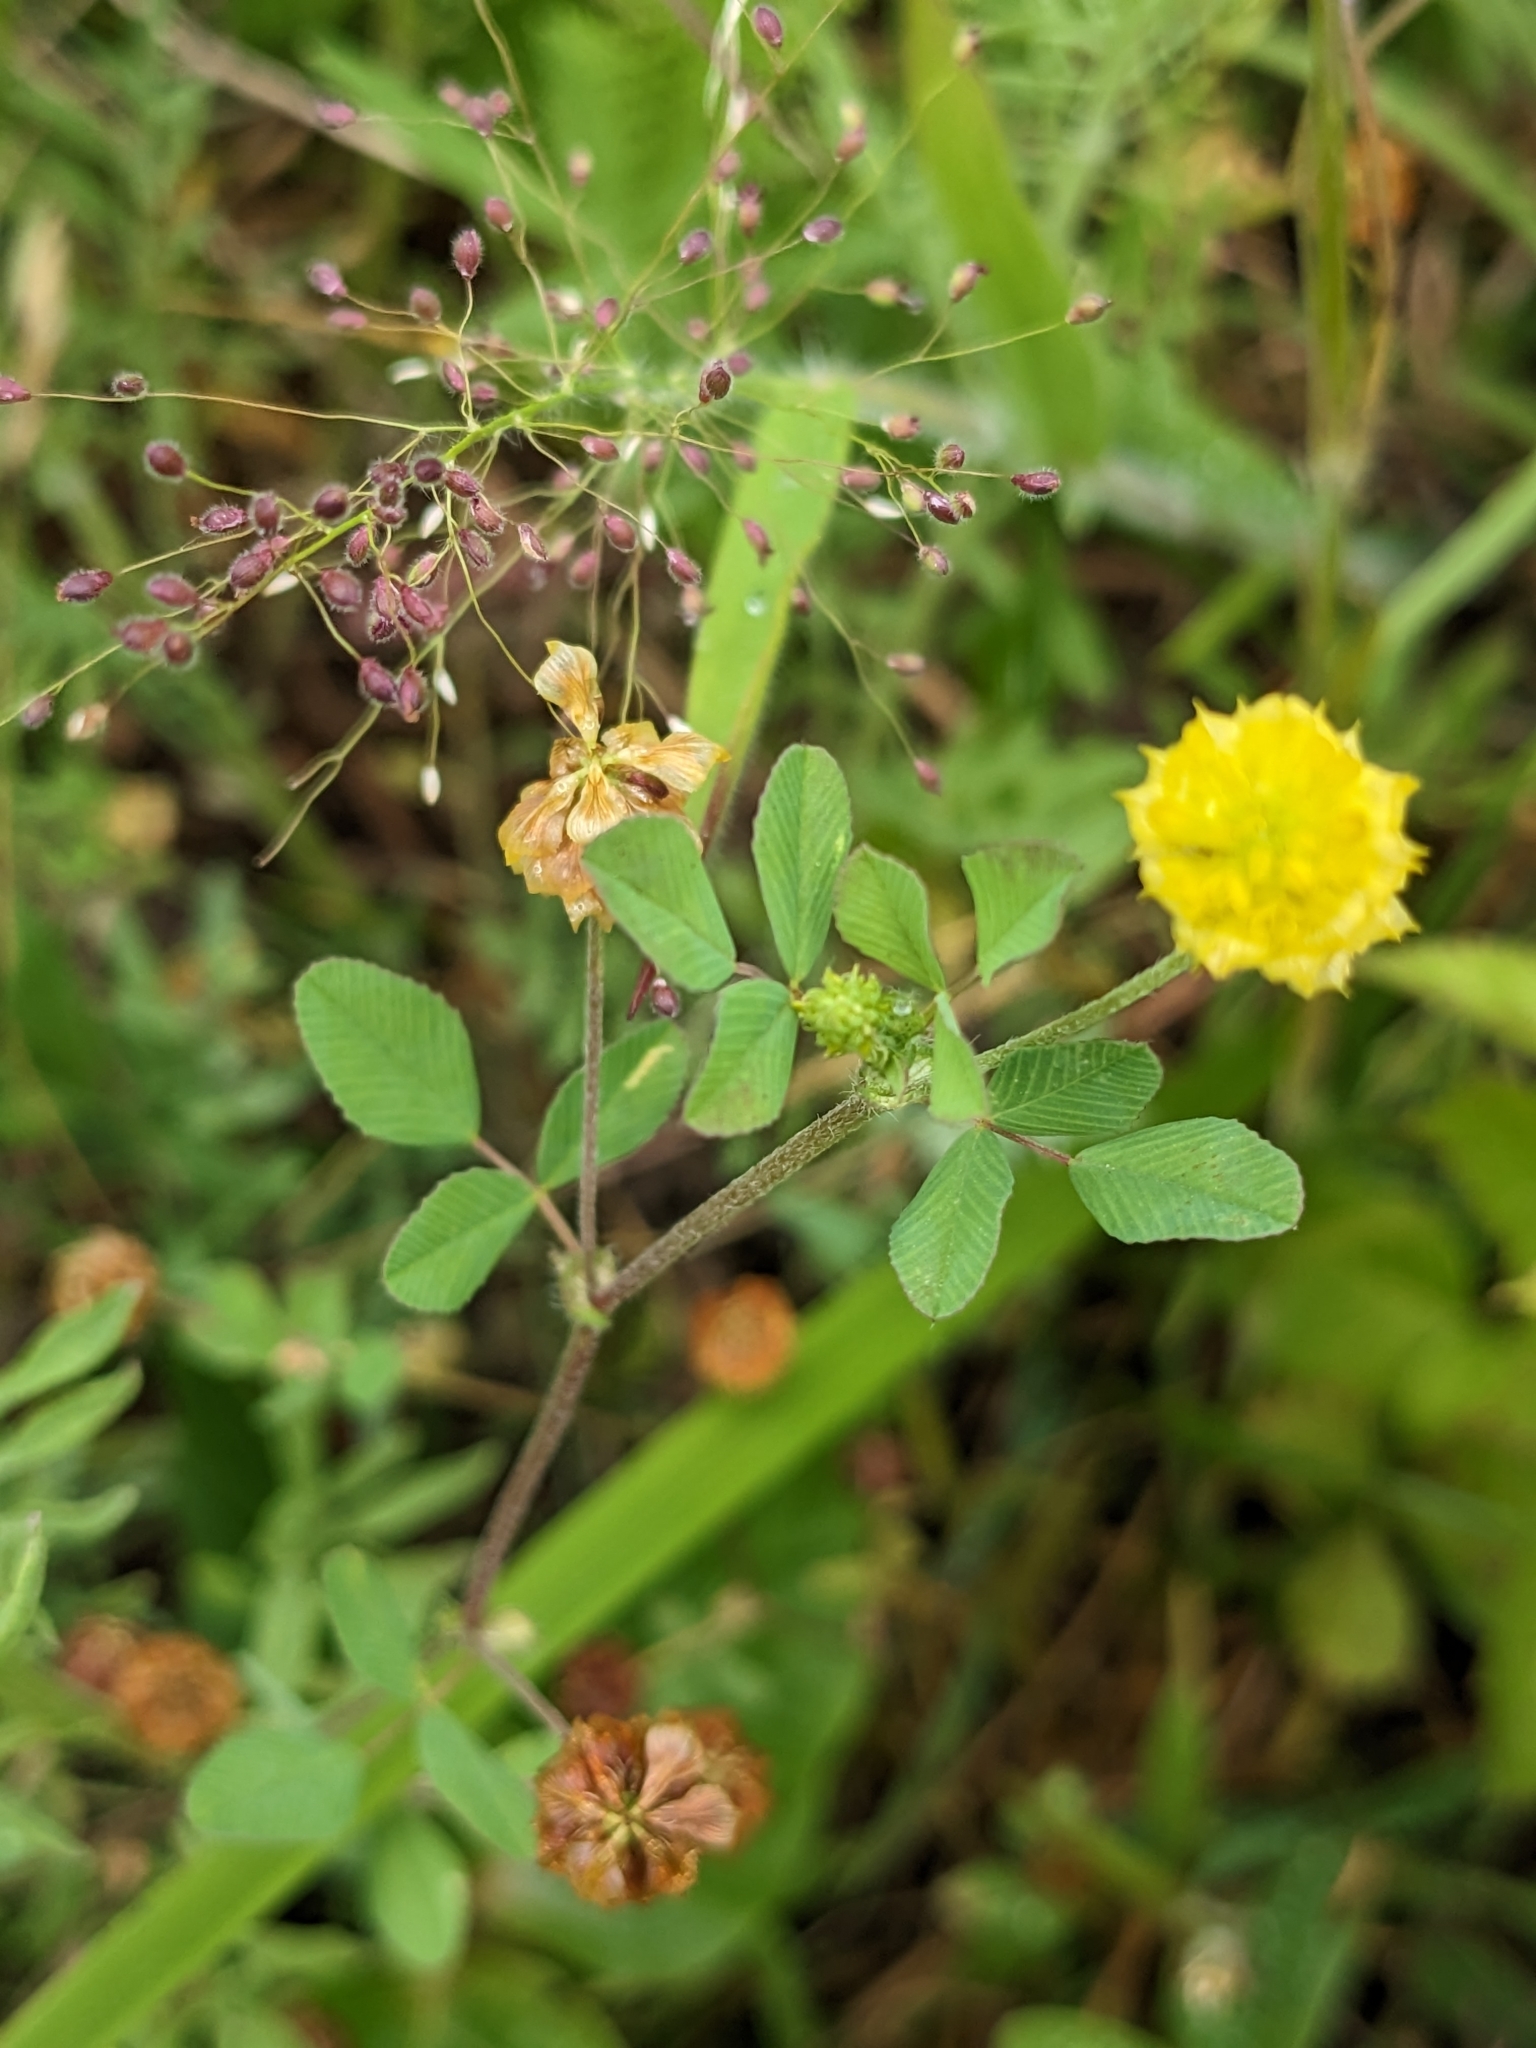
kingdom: Plantae
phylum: Tracheophyta
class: Magnoliopsida
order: Fabales
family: Fabaceae
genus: Trifolium
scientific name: Trifolium campestre
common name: Field clover
